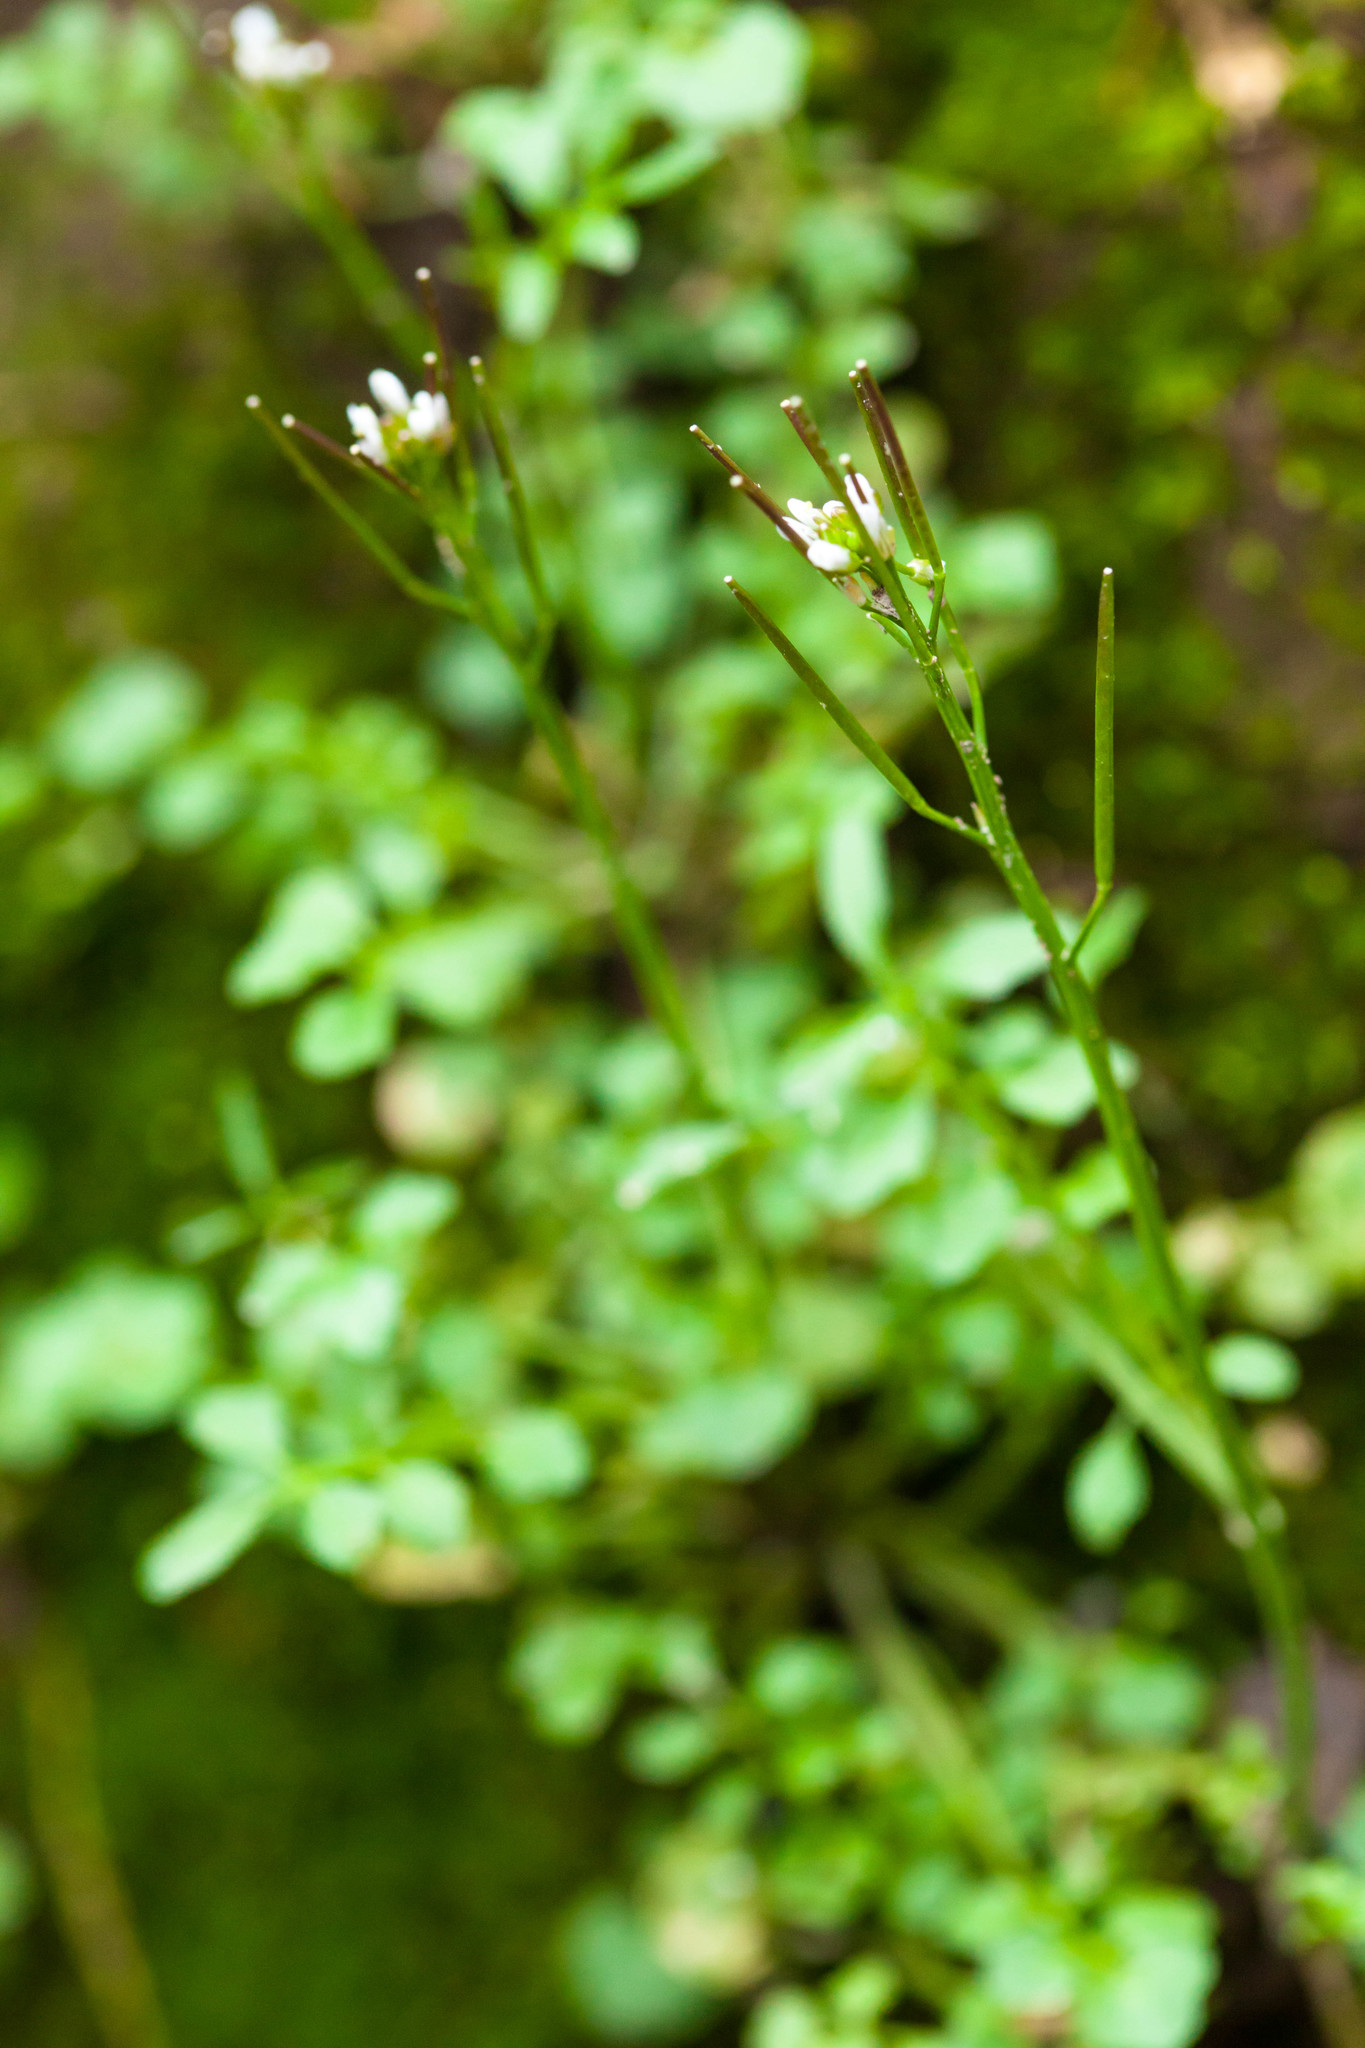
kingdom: Plantae
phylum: Tracheophyta
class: Magnoliopsida
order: Brassicales
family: Brassicaceae
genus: Cardamine
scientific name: Cardamine hirsuta
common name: Hairy bittercress
